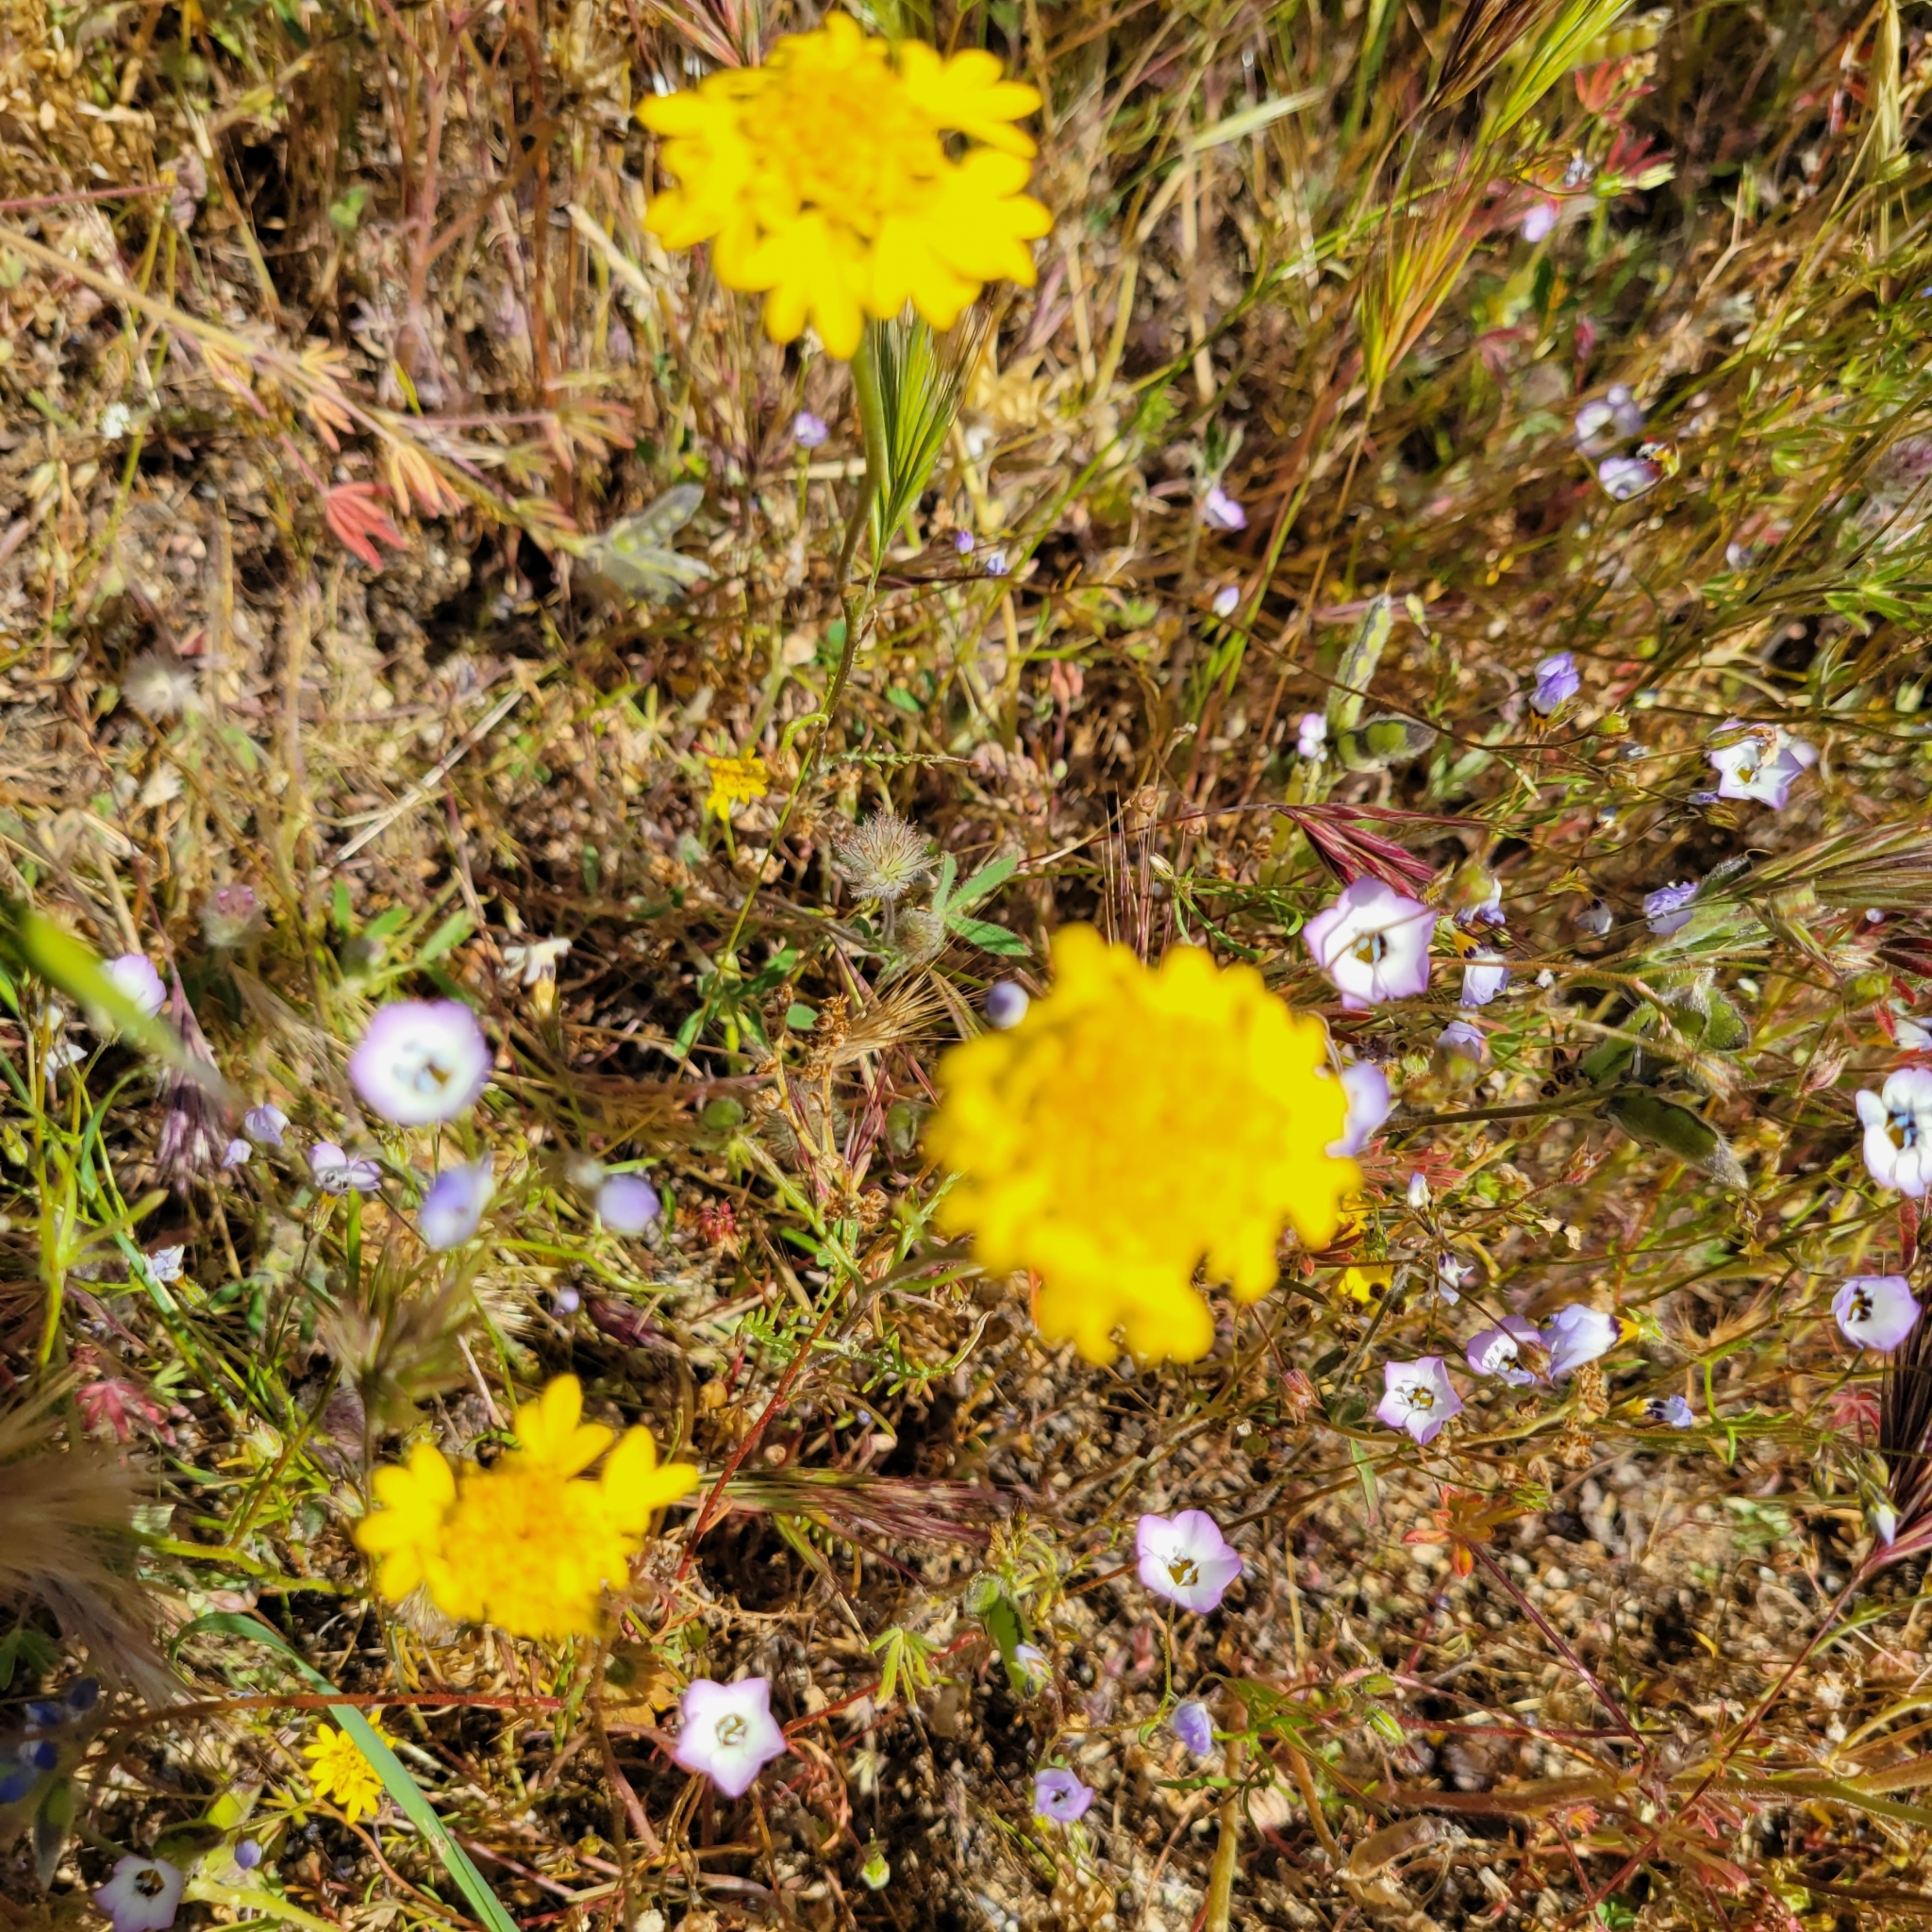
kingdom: Plantae
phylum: Tracheophyta
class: Magnoliopsida
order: Asterales
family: Asteraceae
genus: Chaenactis
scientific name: Chaenactis glabriuscula
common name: Yellow pincushion
